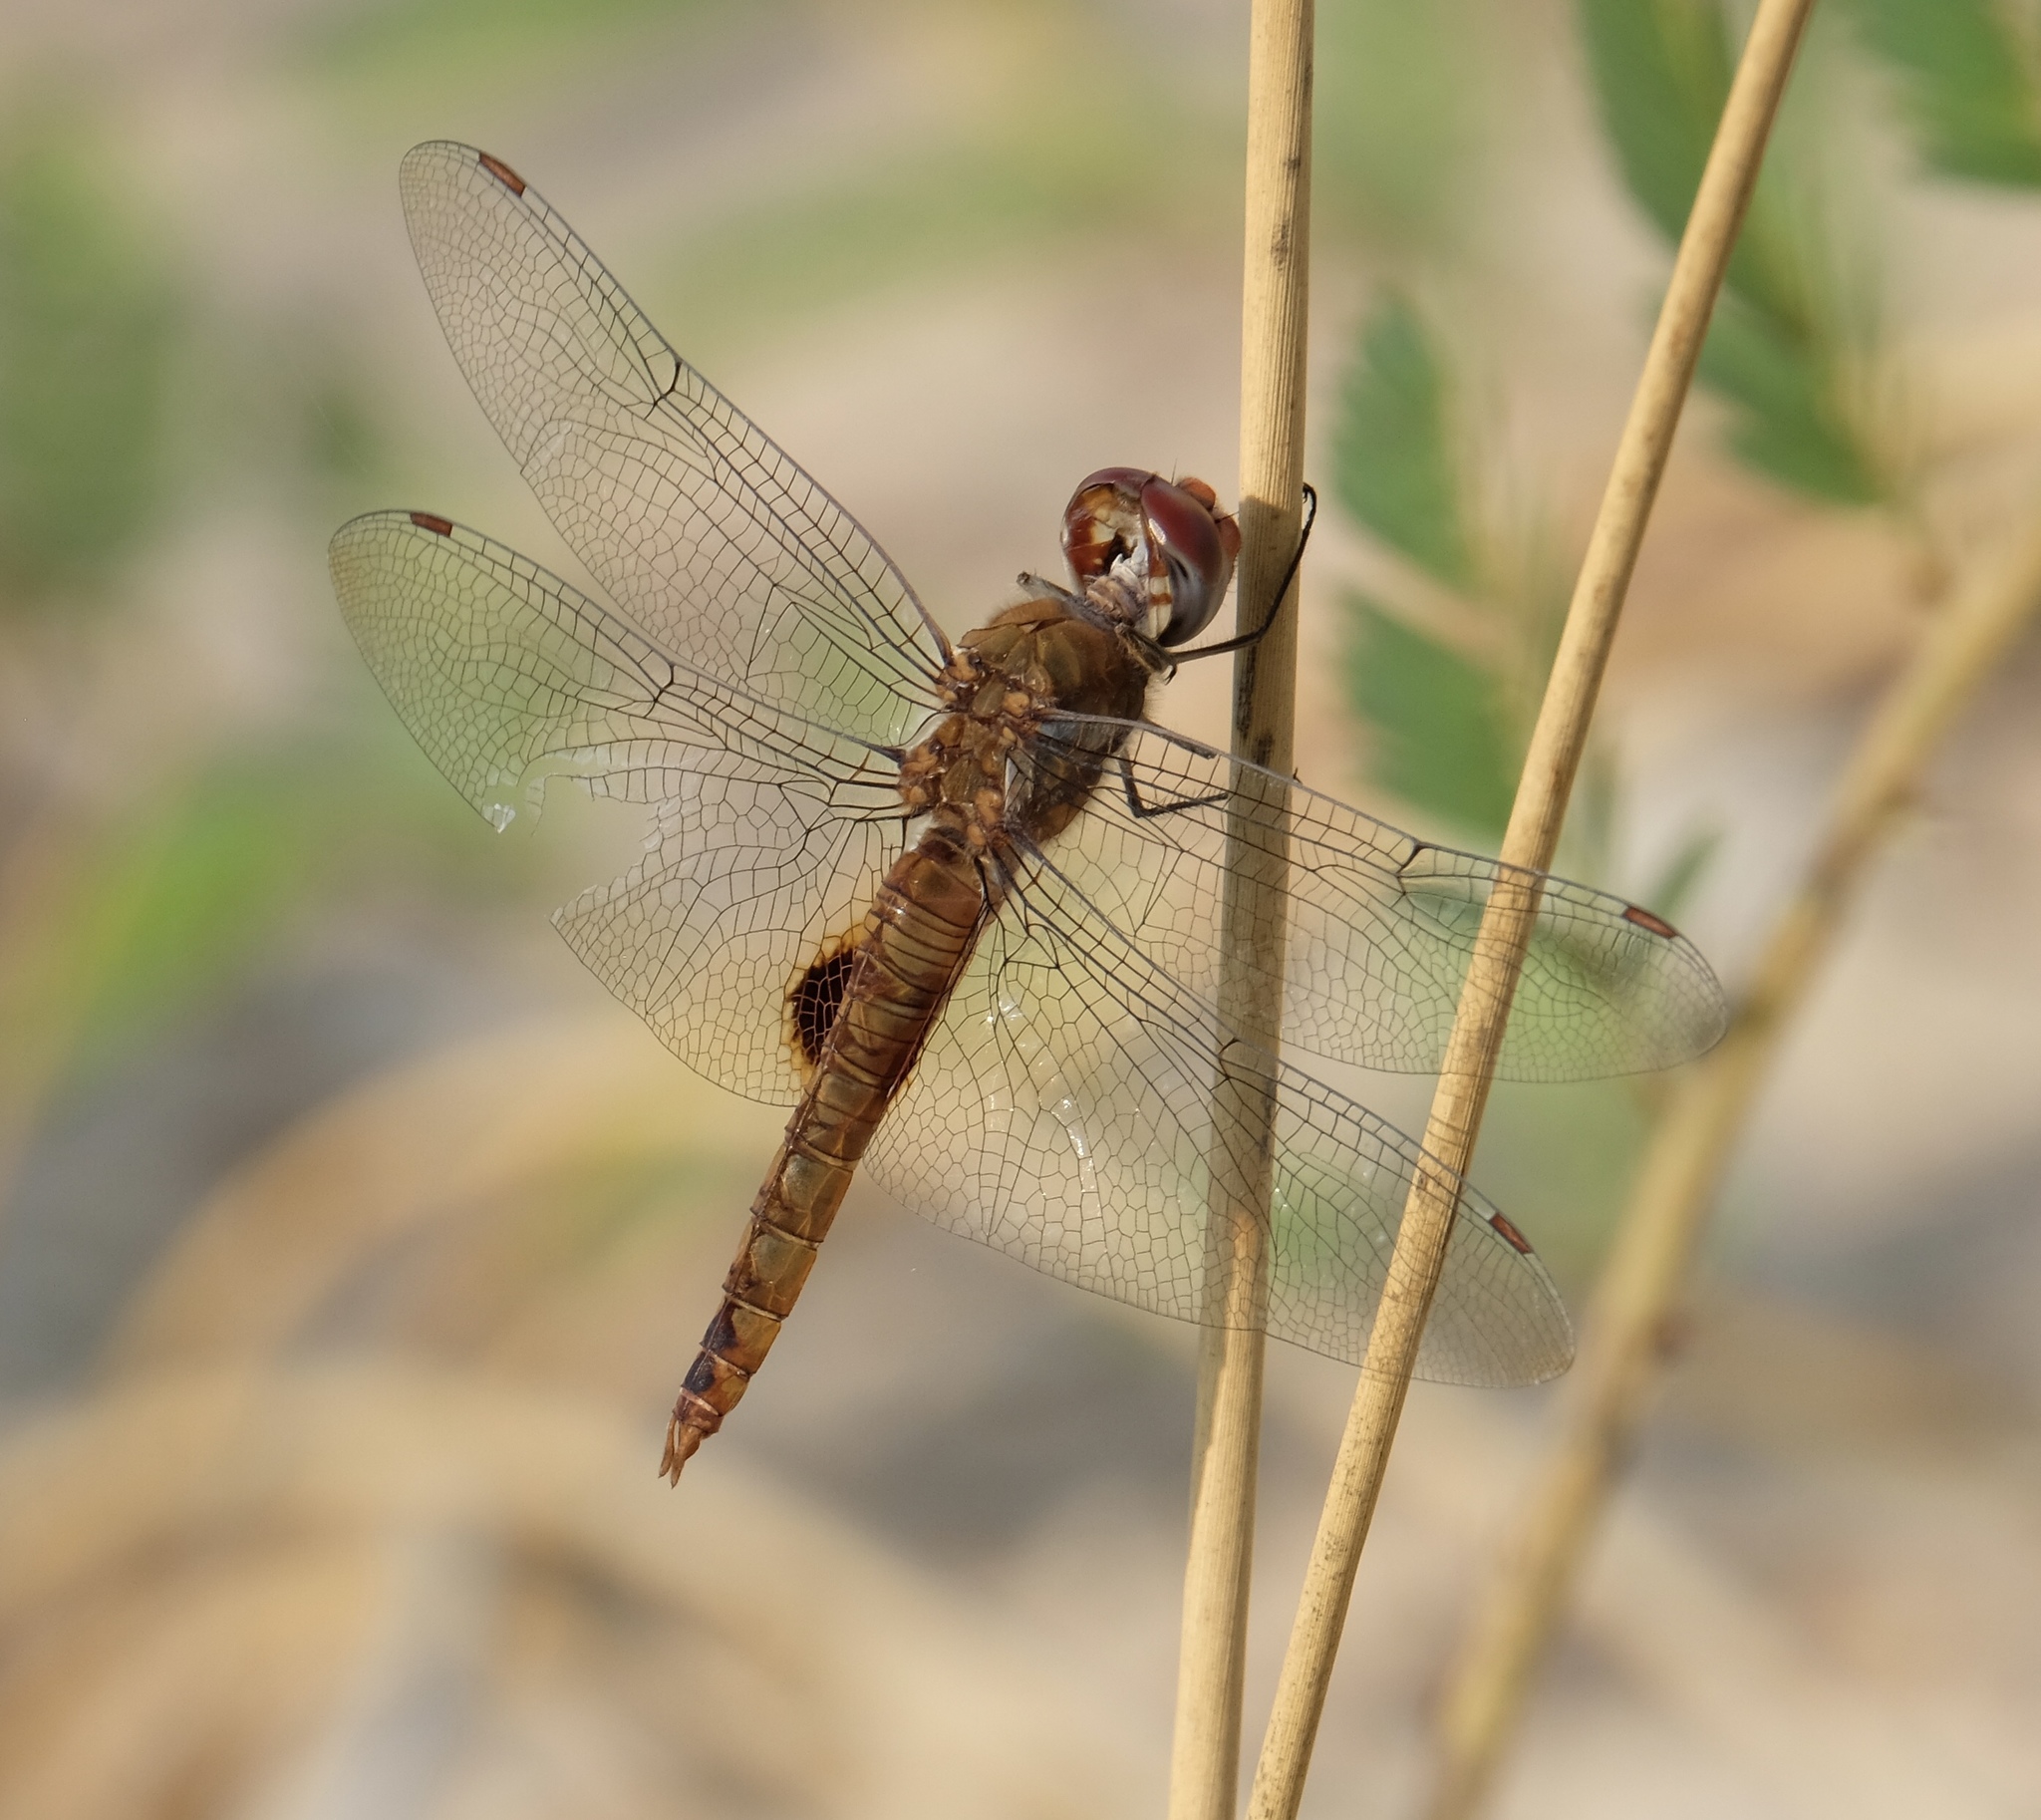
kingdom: Animalia
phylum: Arthropoda
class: Insecta
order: Odonata
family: Libellulidae
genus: Pantala
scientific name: Pantala hymenaea
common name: Spot-winged glider
